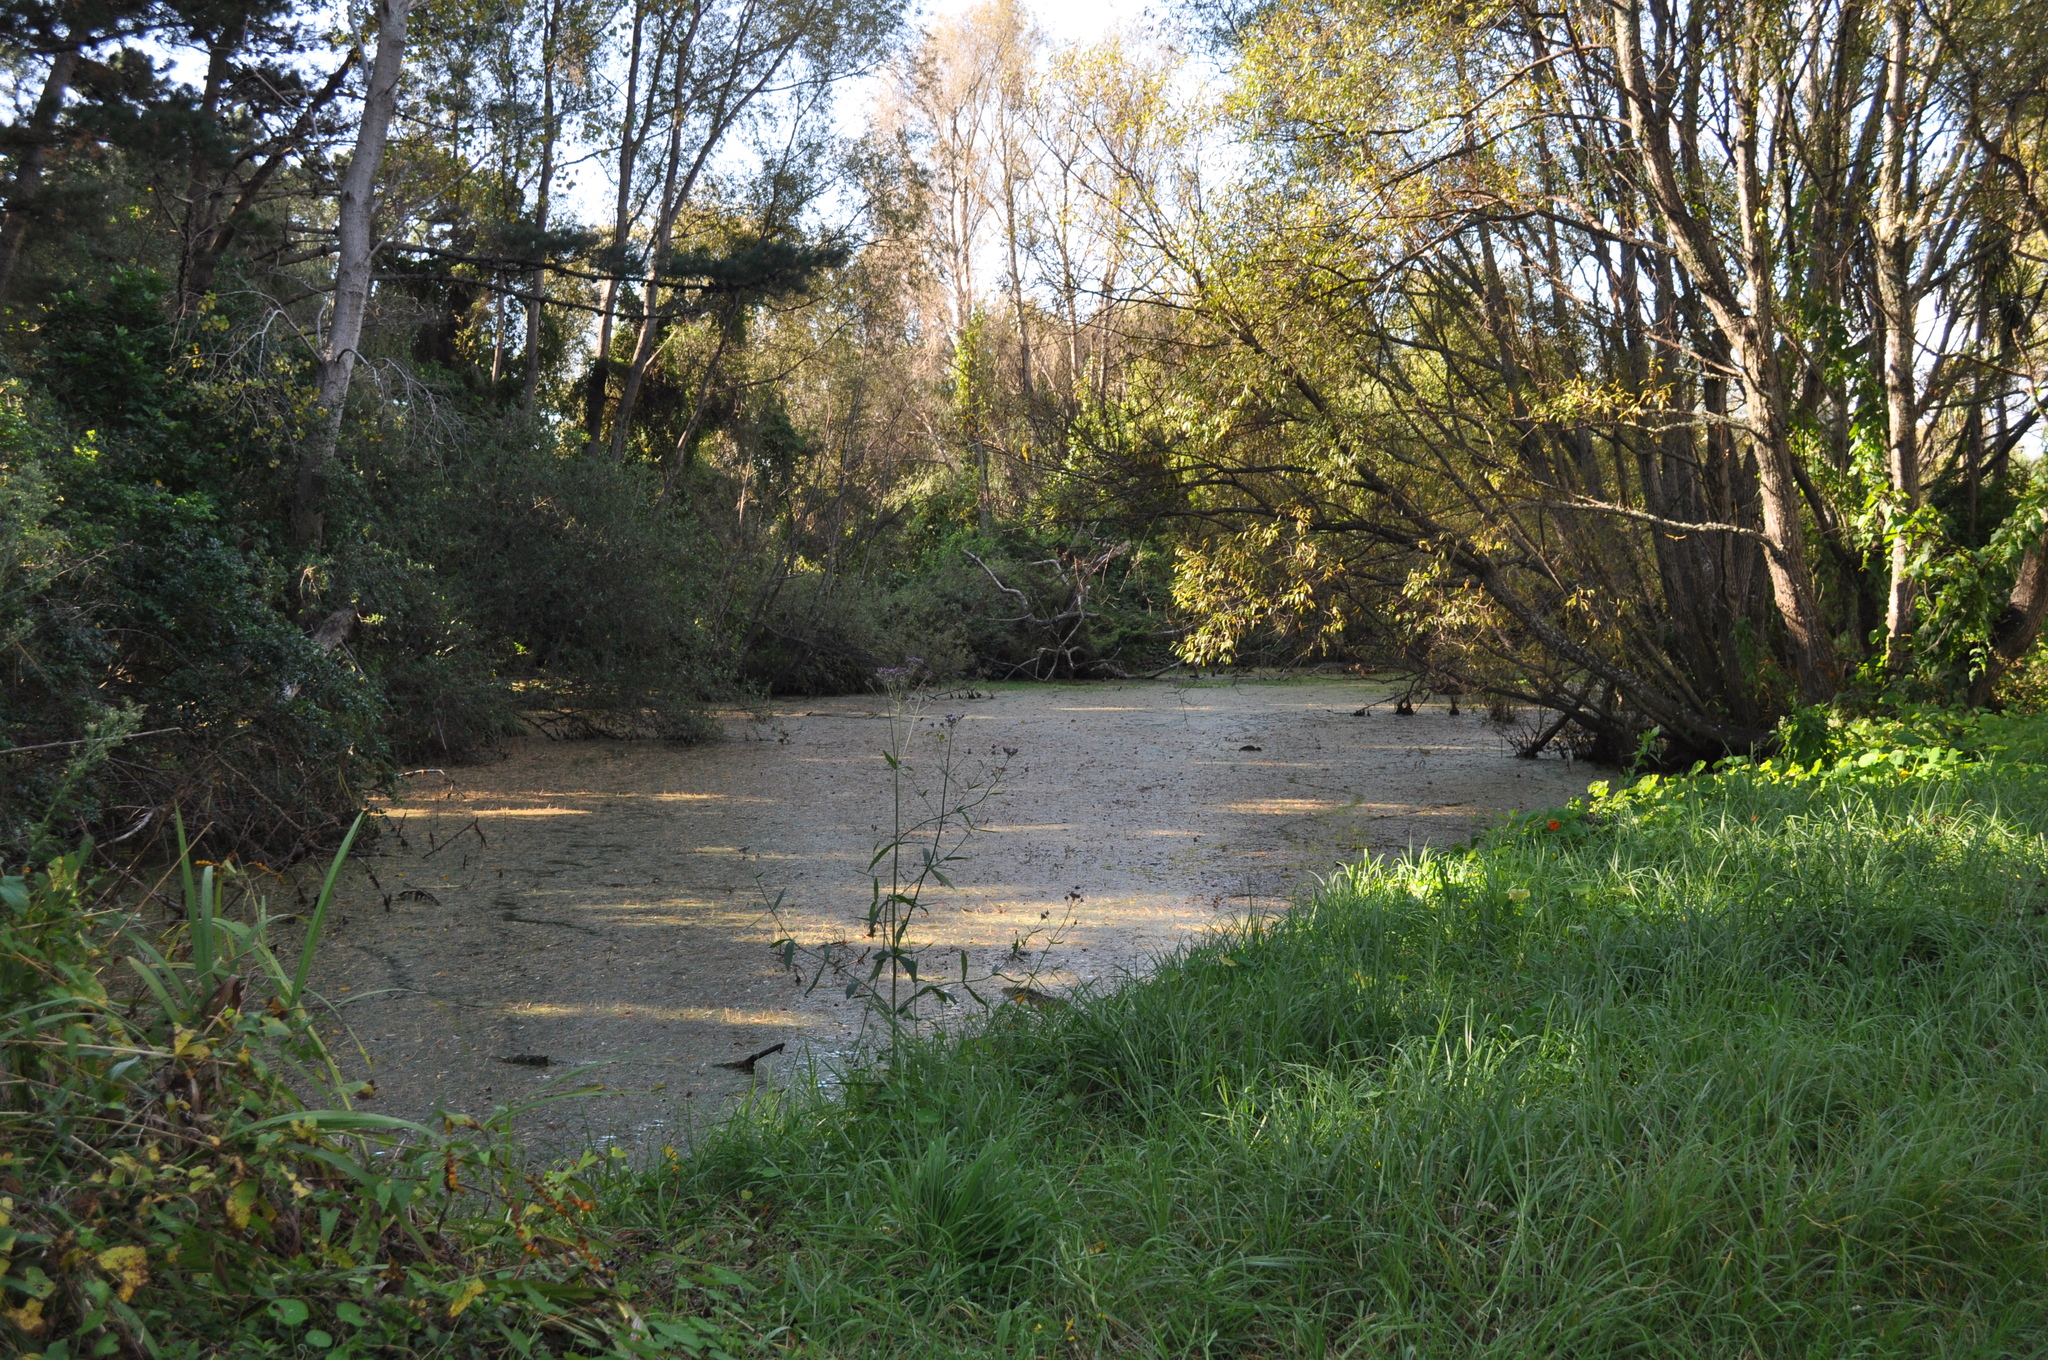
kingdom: Plantae
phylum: Tracheophyta
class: Magnoliopsida
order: Saxifragales
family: Haloragaceae
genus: Myriophyllum
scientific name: Myriophyllum aquaticum
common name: Parrot's feather
